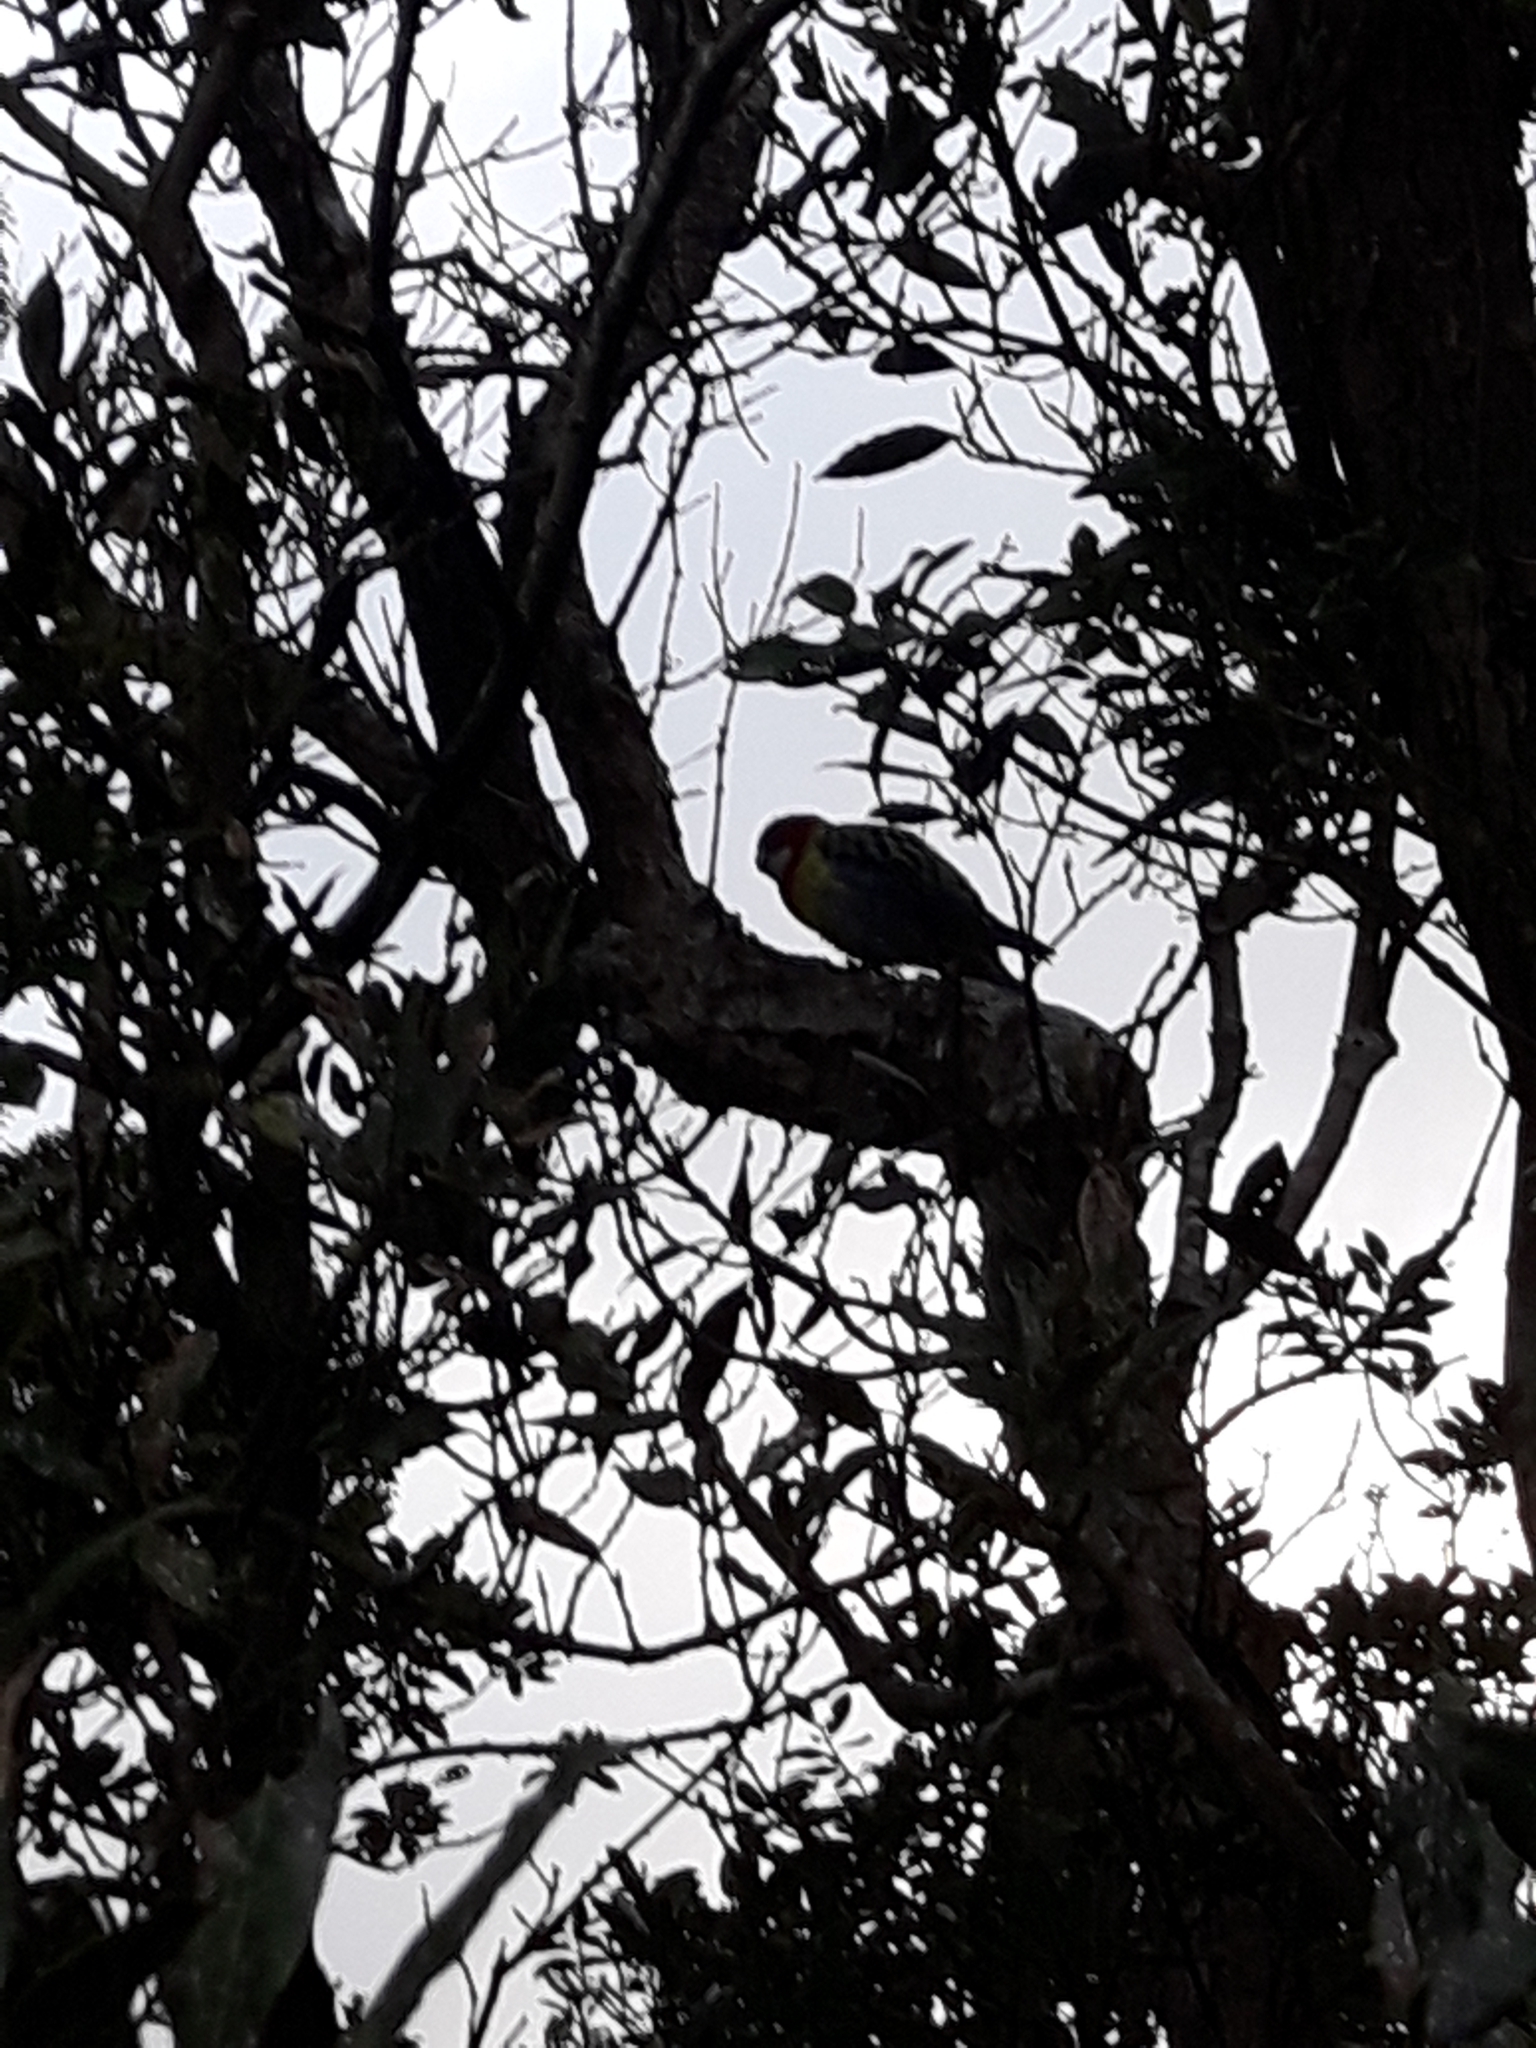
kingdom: Animalia
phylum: Chordata
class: Aves
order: Psittaciformes
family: Psittacidae
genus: Platycercus
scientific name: Platycercus eximius
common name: Eastern rosella
